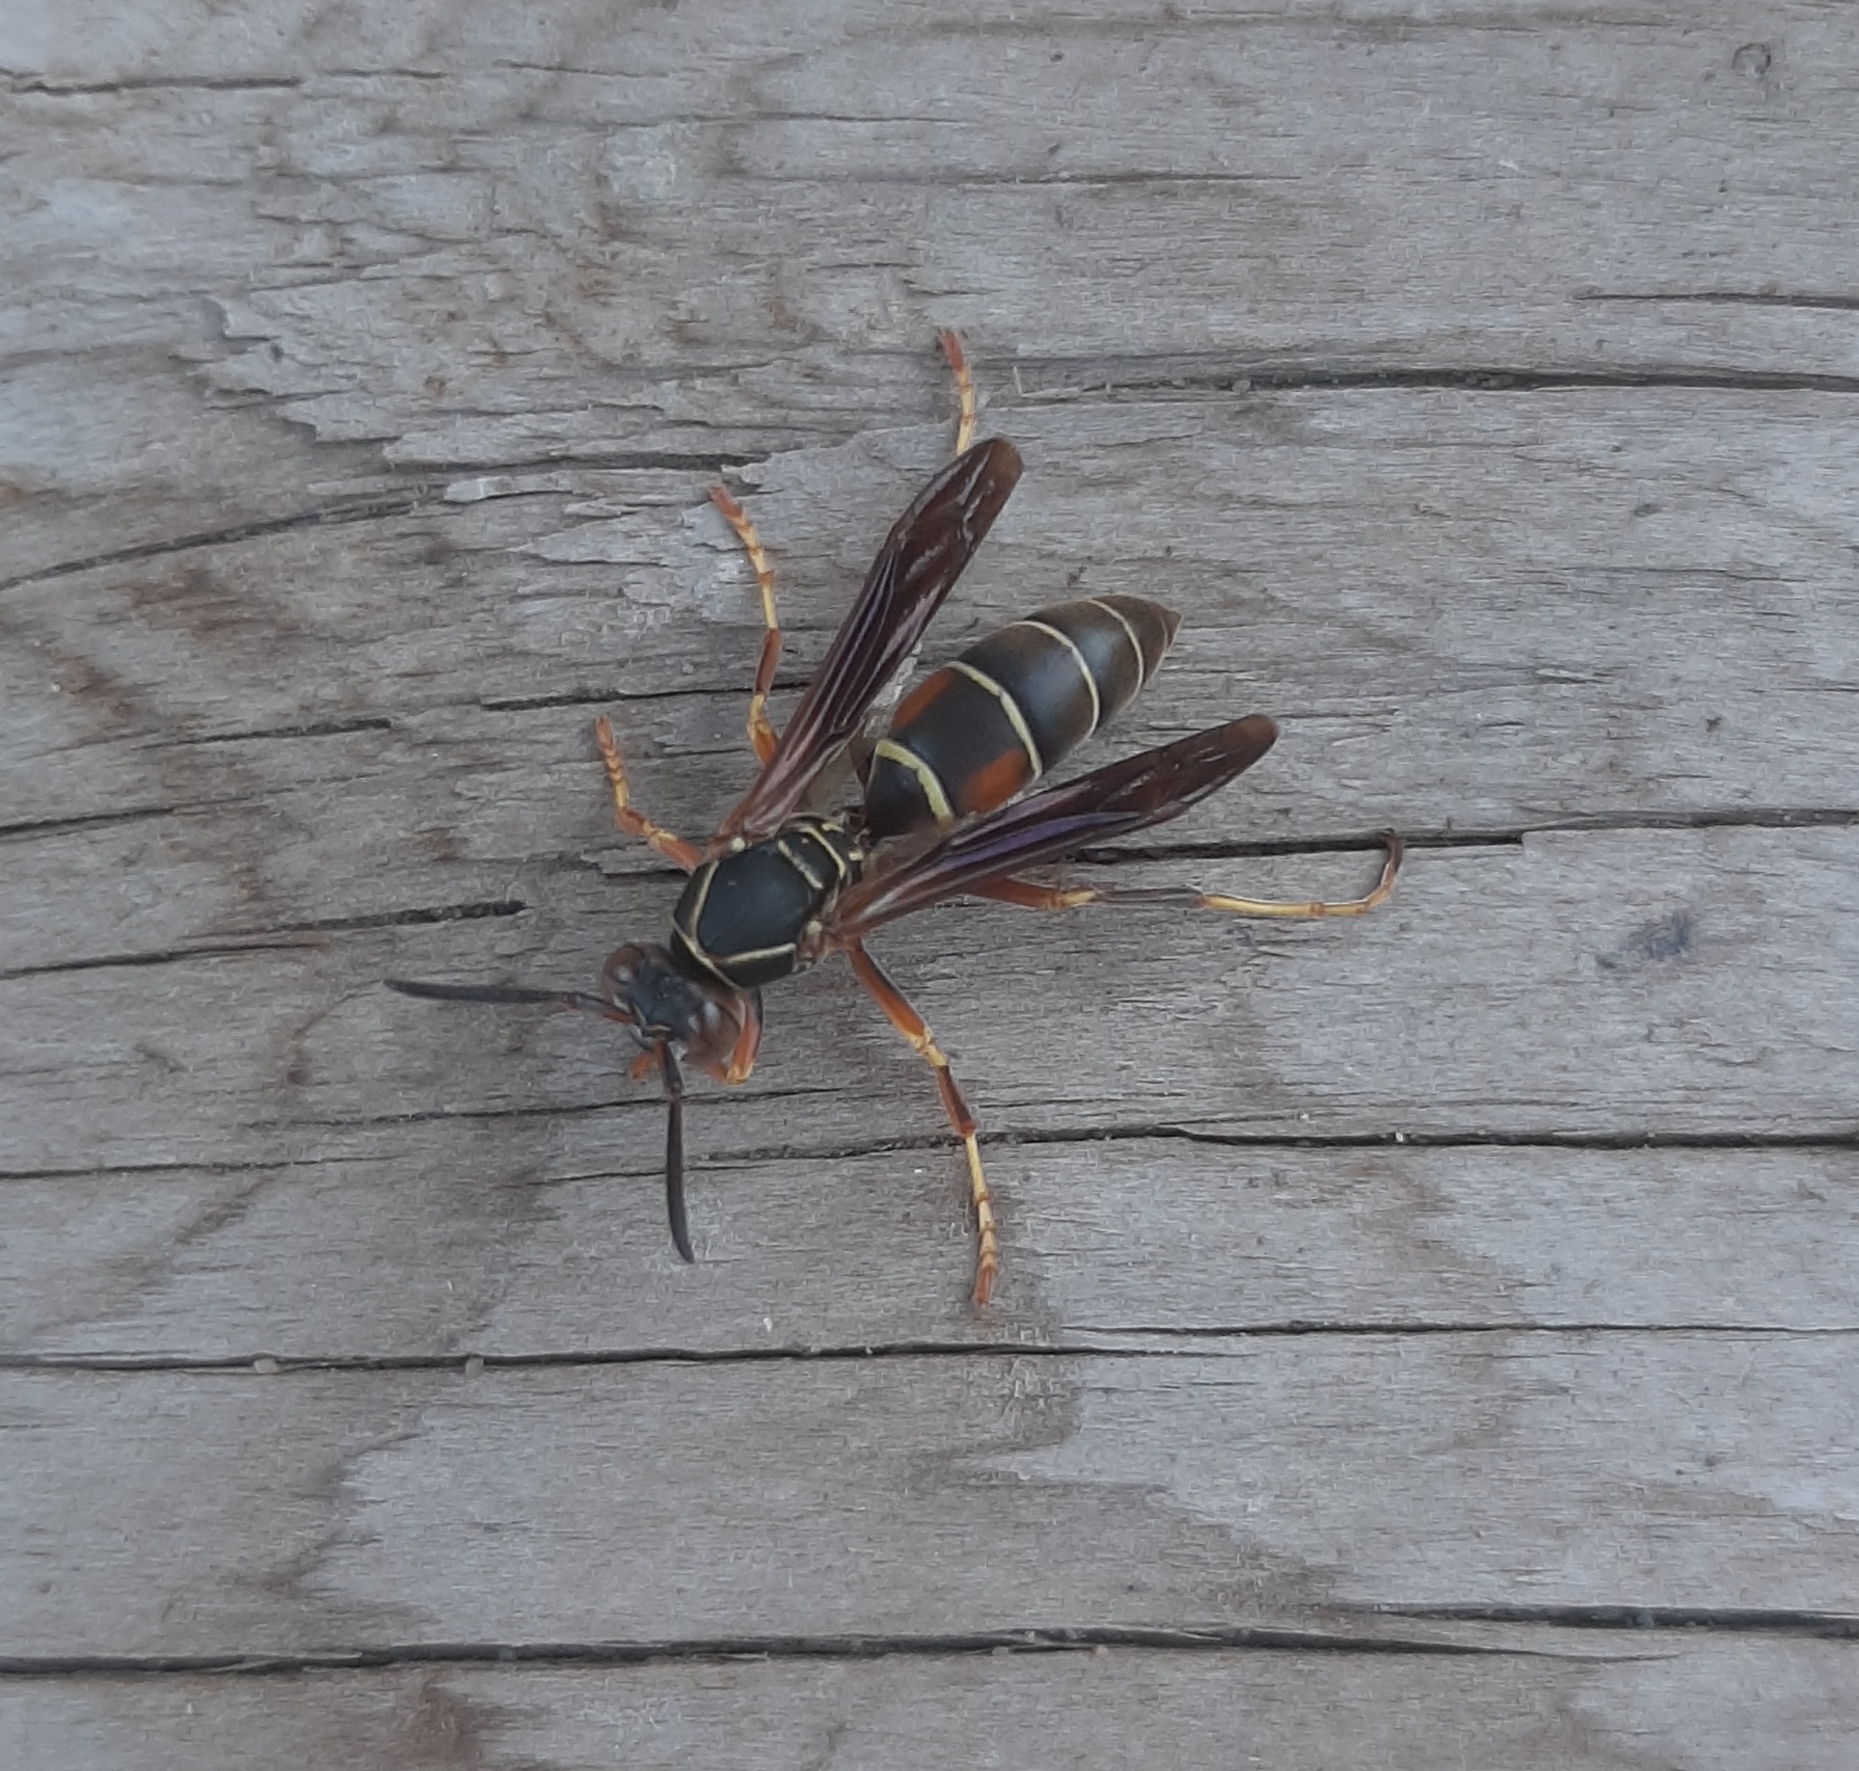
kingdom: Animalia
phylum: Arthropoda
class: Insecta
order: Hymenoptera
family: Eumenidae
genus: Polistes
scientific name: Polistes fuscatus
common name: Dark paper wasp
